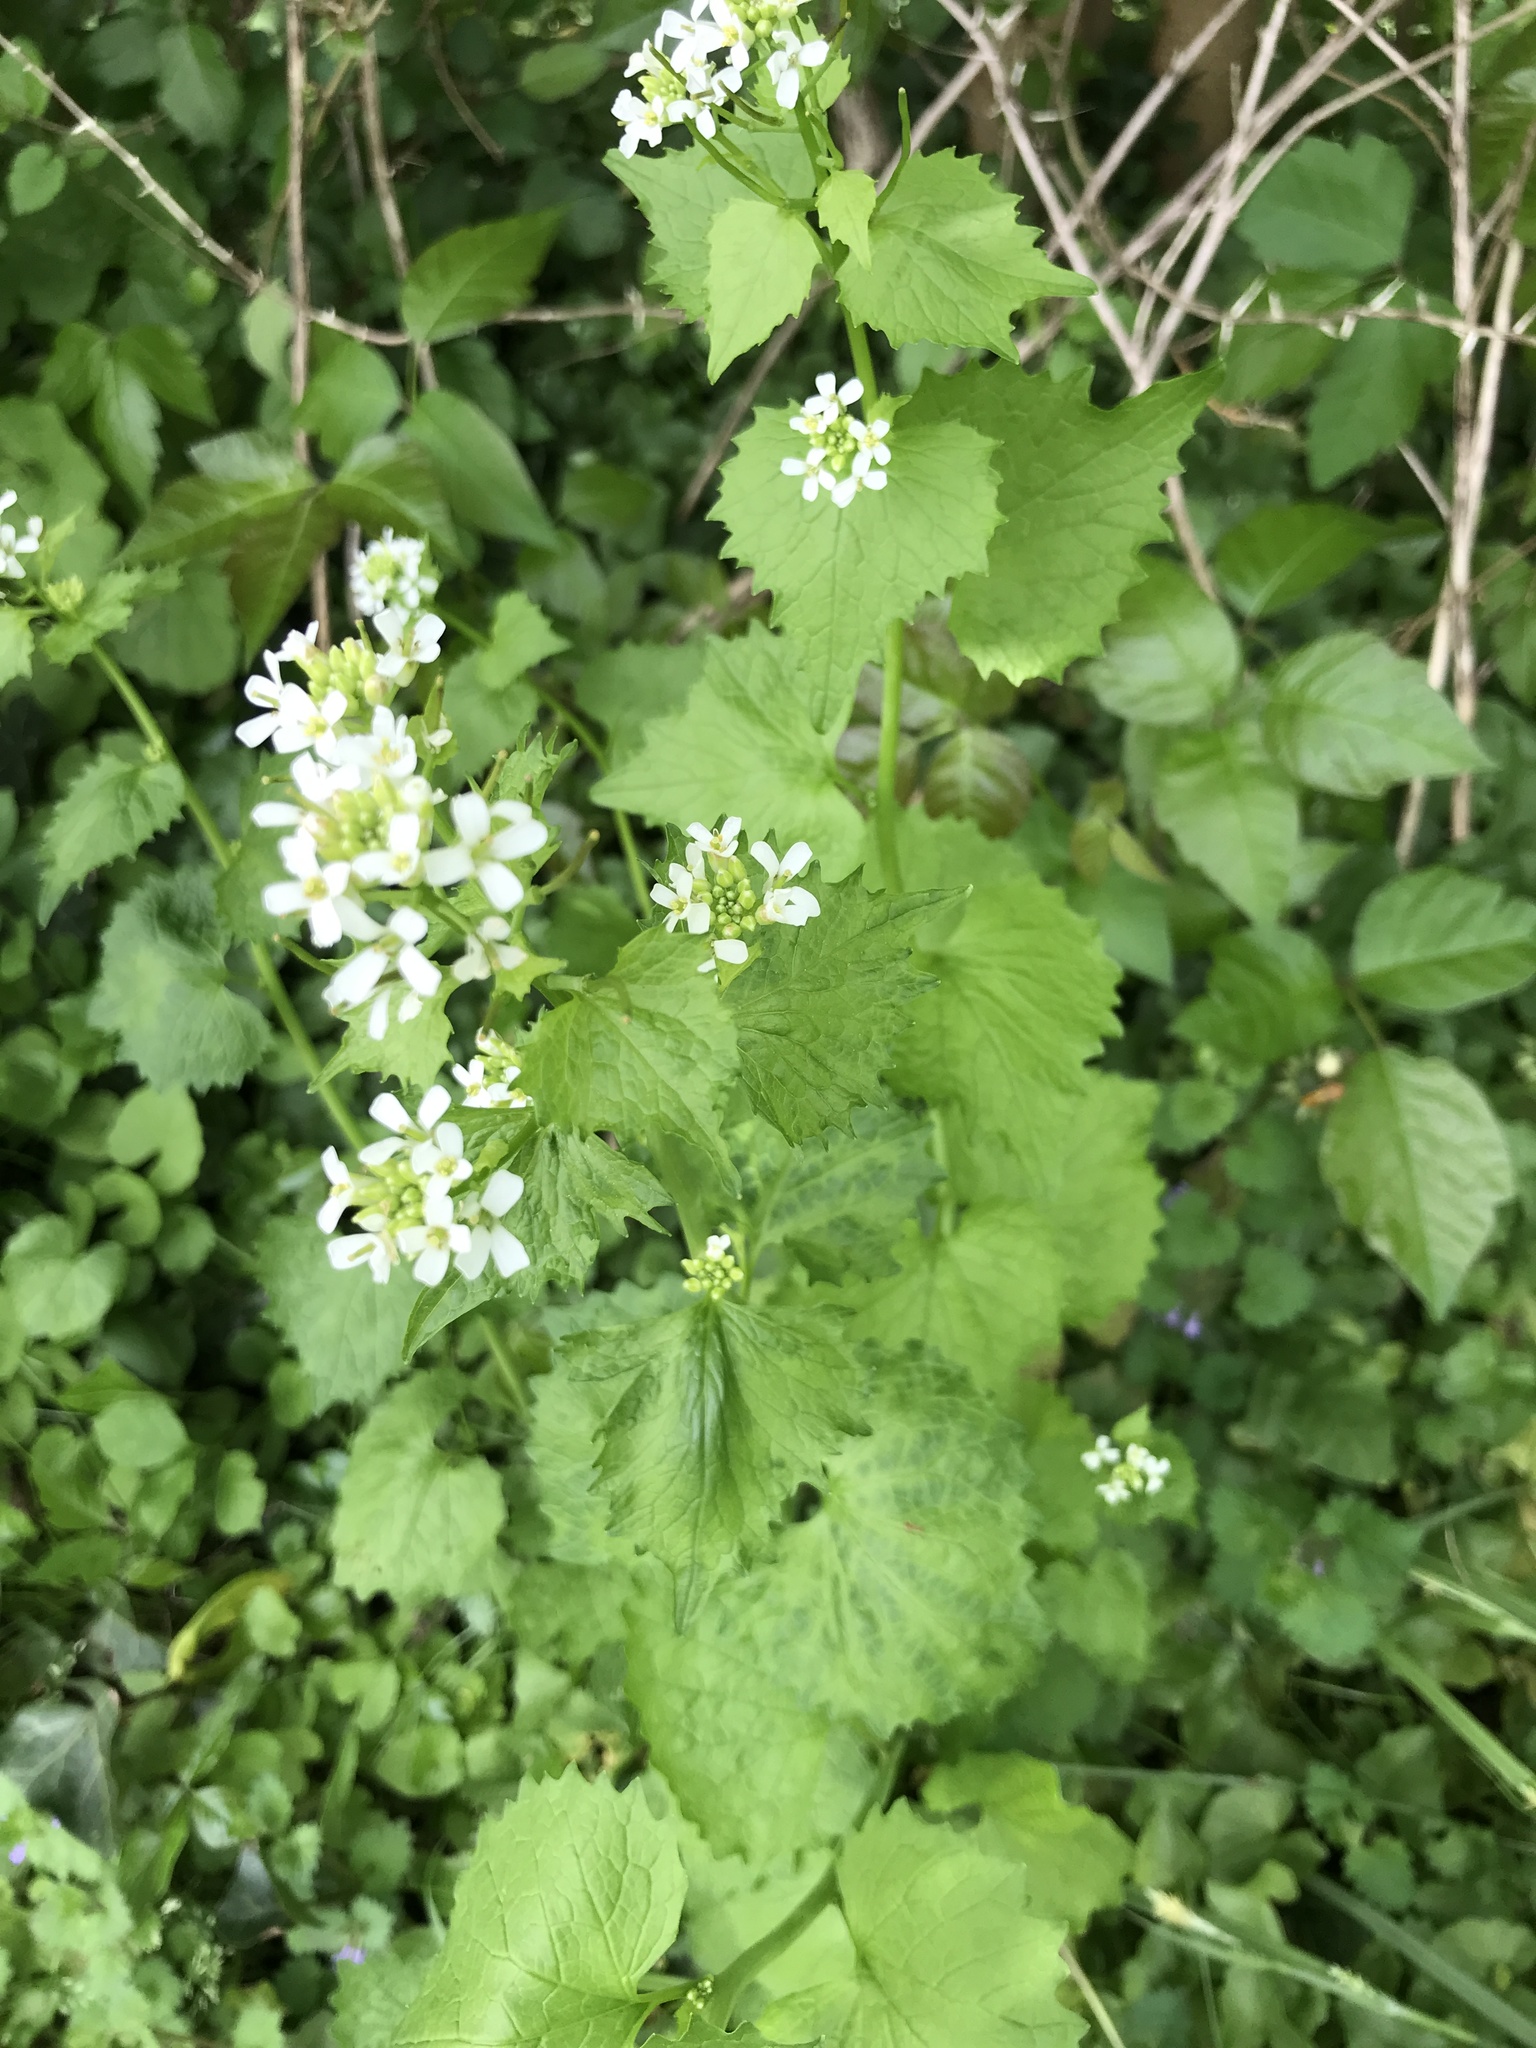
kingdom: Plantae
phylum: Tracheophyta
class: Magnoliopsida
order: Brassicales
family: Brassicaceae
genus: Alliaria
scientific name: Alliaria petiolata
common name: Garlic mustard
